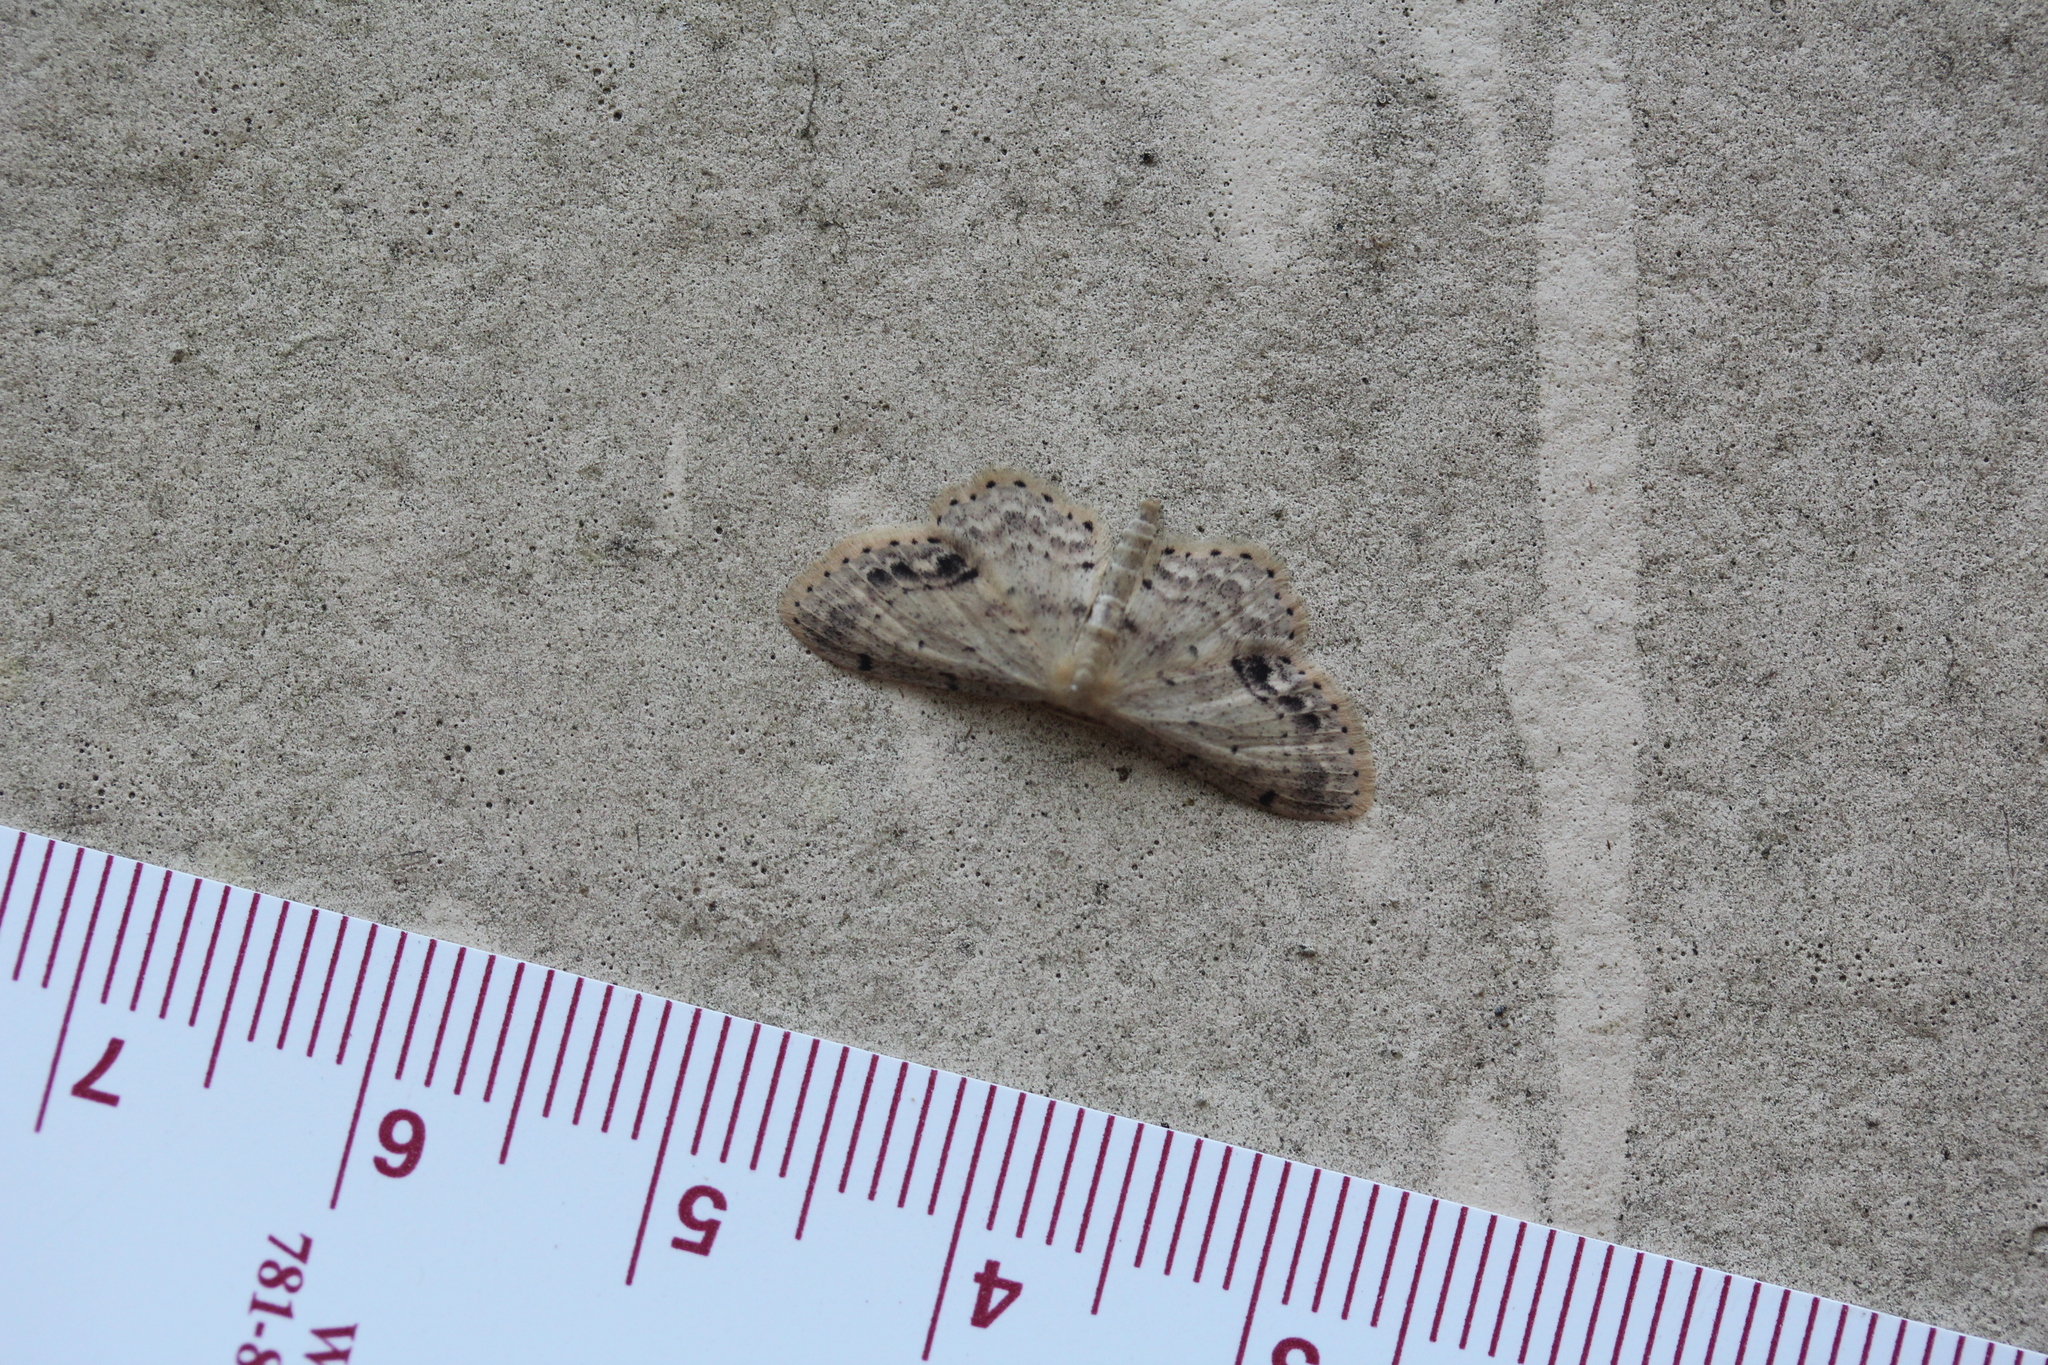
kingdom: Animalia
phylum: Arthropoda
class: Insecta
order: Lepidoptera
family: Geometridae
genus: Idaea
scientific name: Idaea dimidiata
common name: Single-dotted wave
